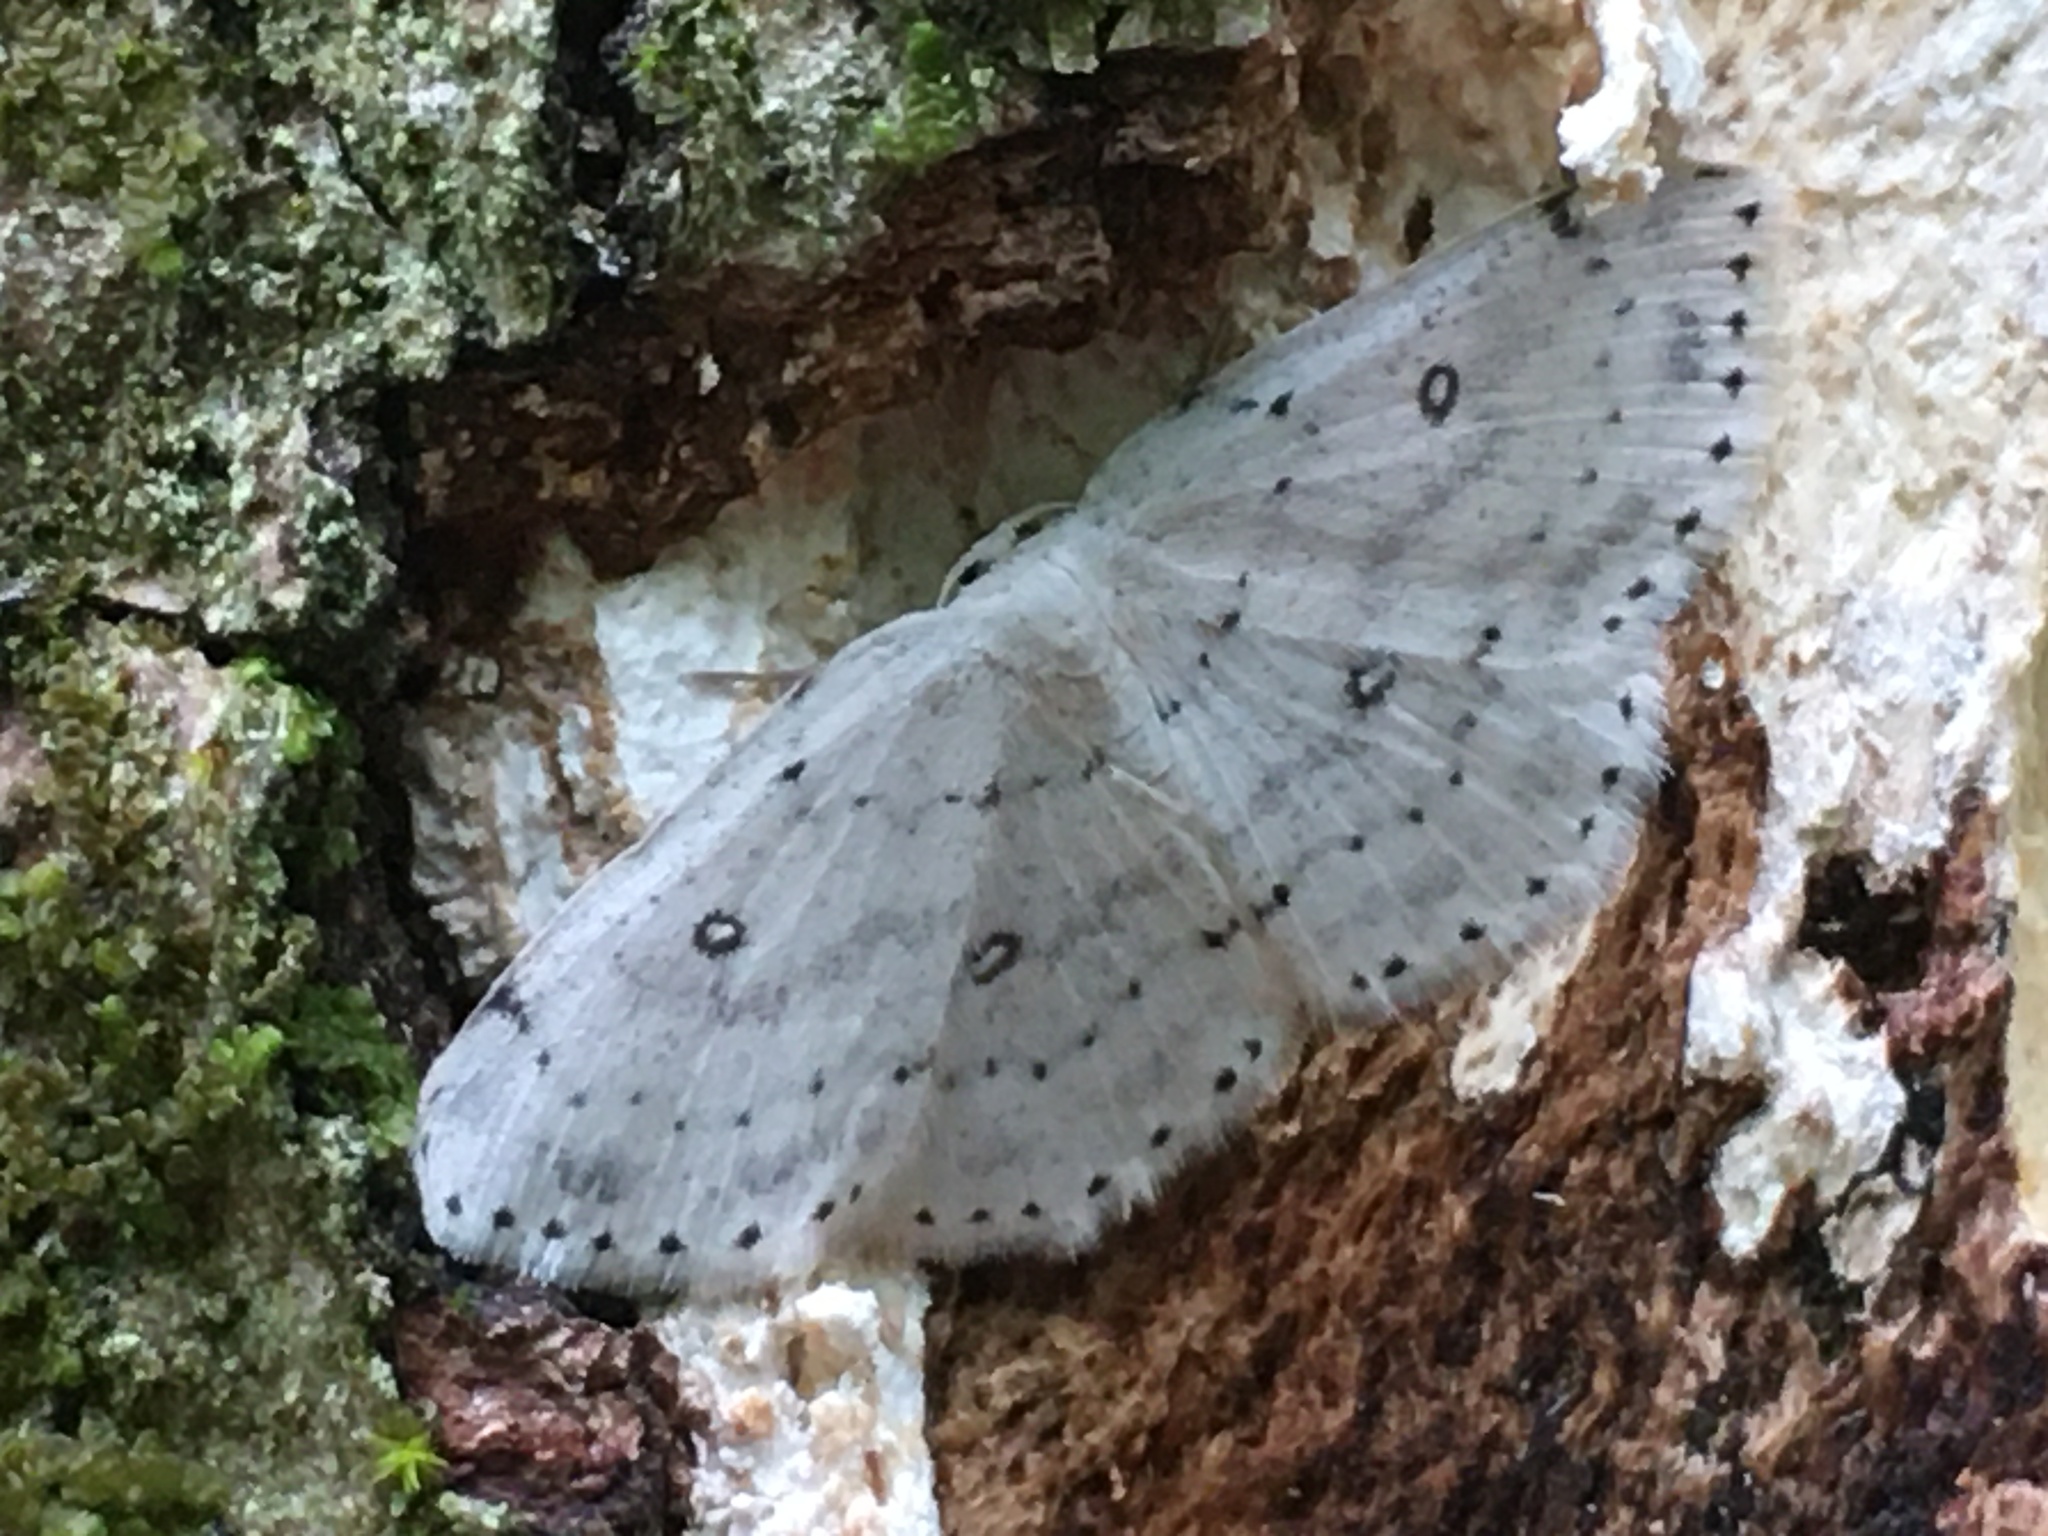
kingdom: Animalia
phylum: Arthropoda
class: Insecta
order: Lepidoptera
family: Geometridae
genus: Cyclophora
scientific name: Cyclophora pendulinaria
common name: Sweet fern geometer
